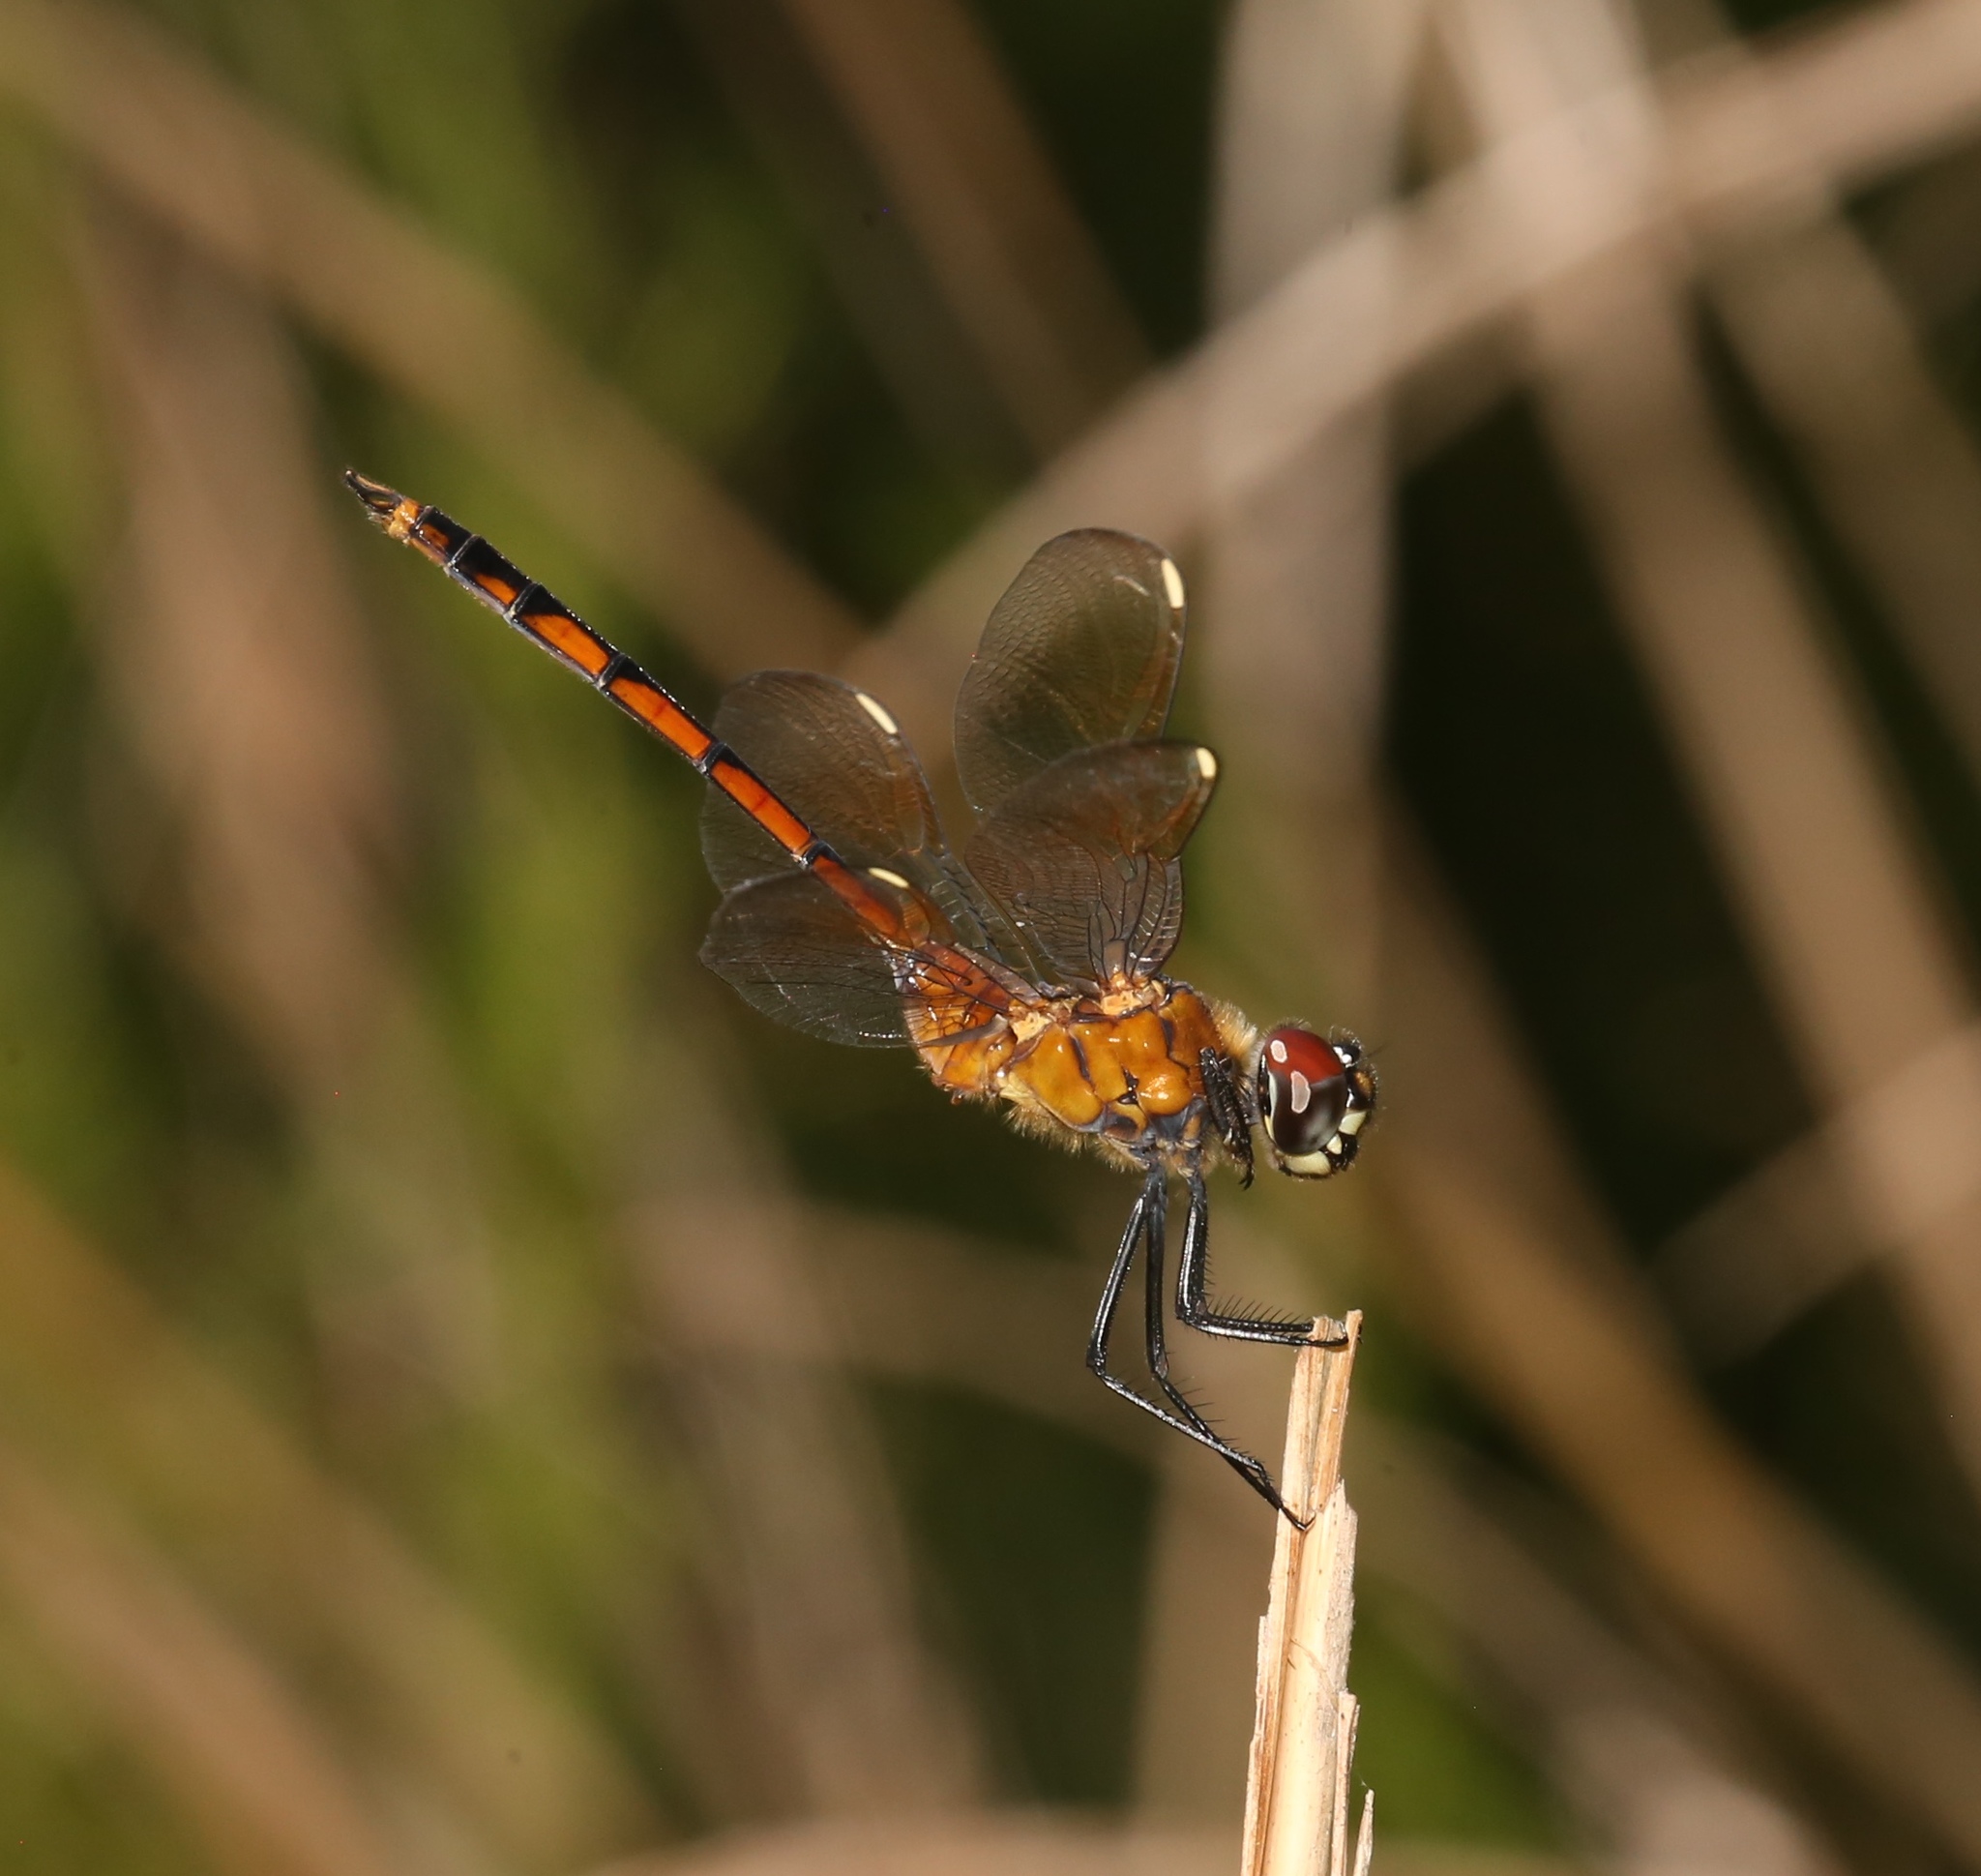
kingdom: Animalia
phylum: Arthropoda
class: Insecta
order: Odonata
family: Libellulidae
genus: Brachymesia
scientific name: Brachymesia gravida
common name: Four-spotted pennant
